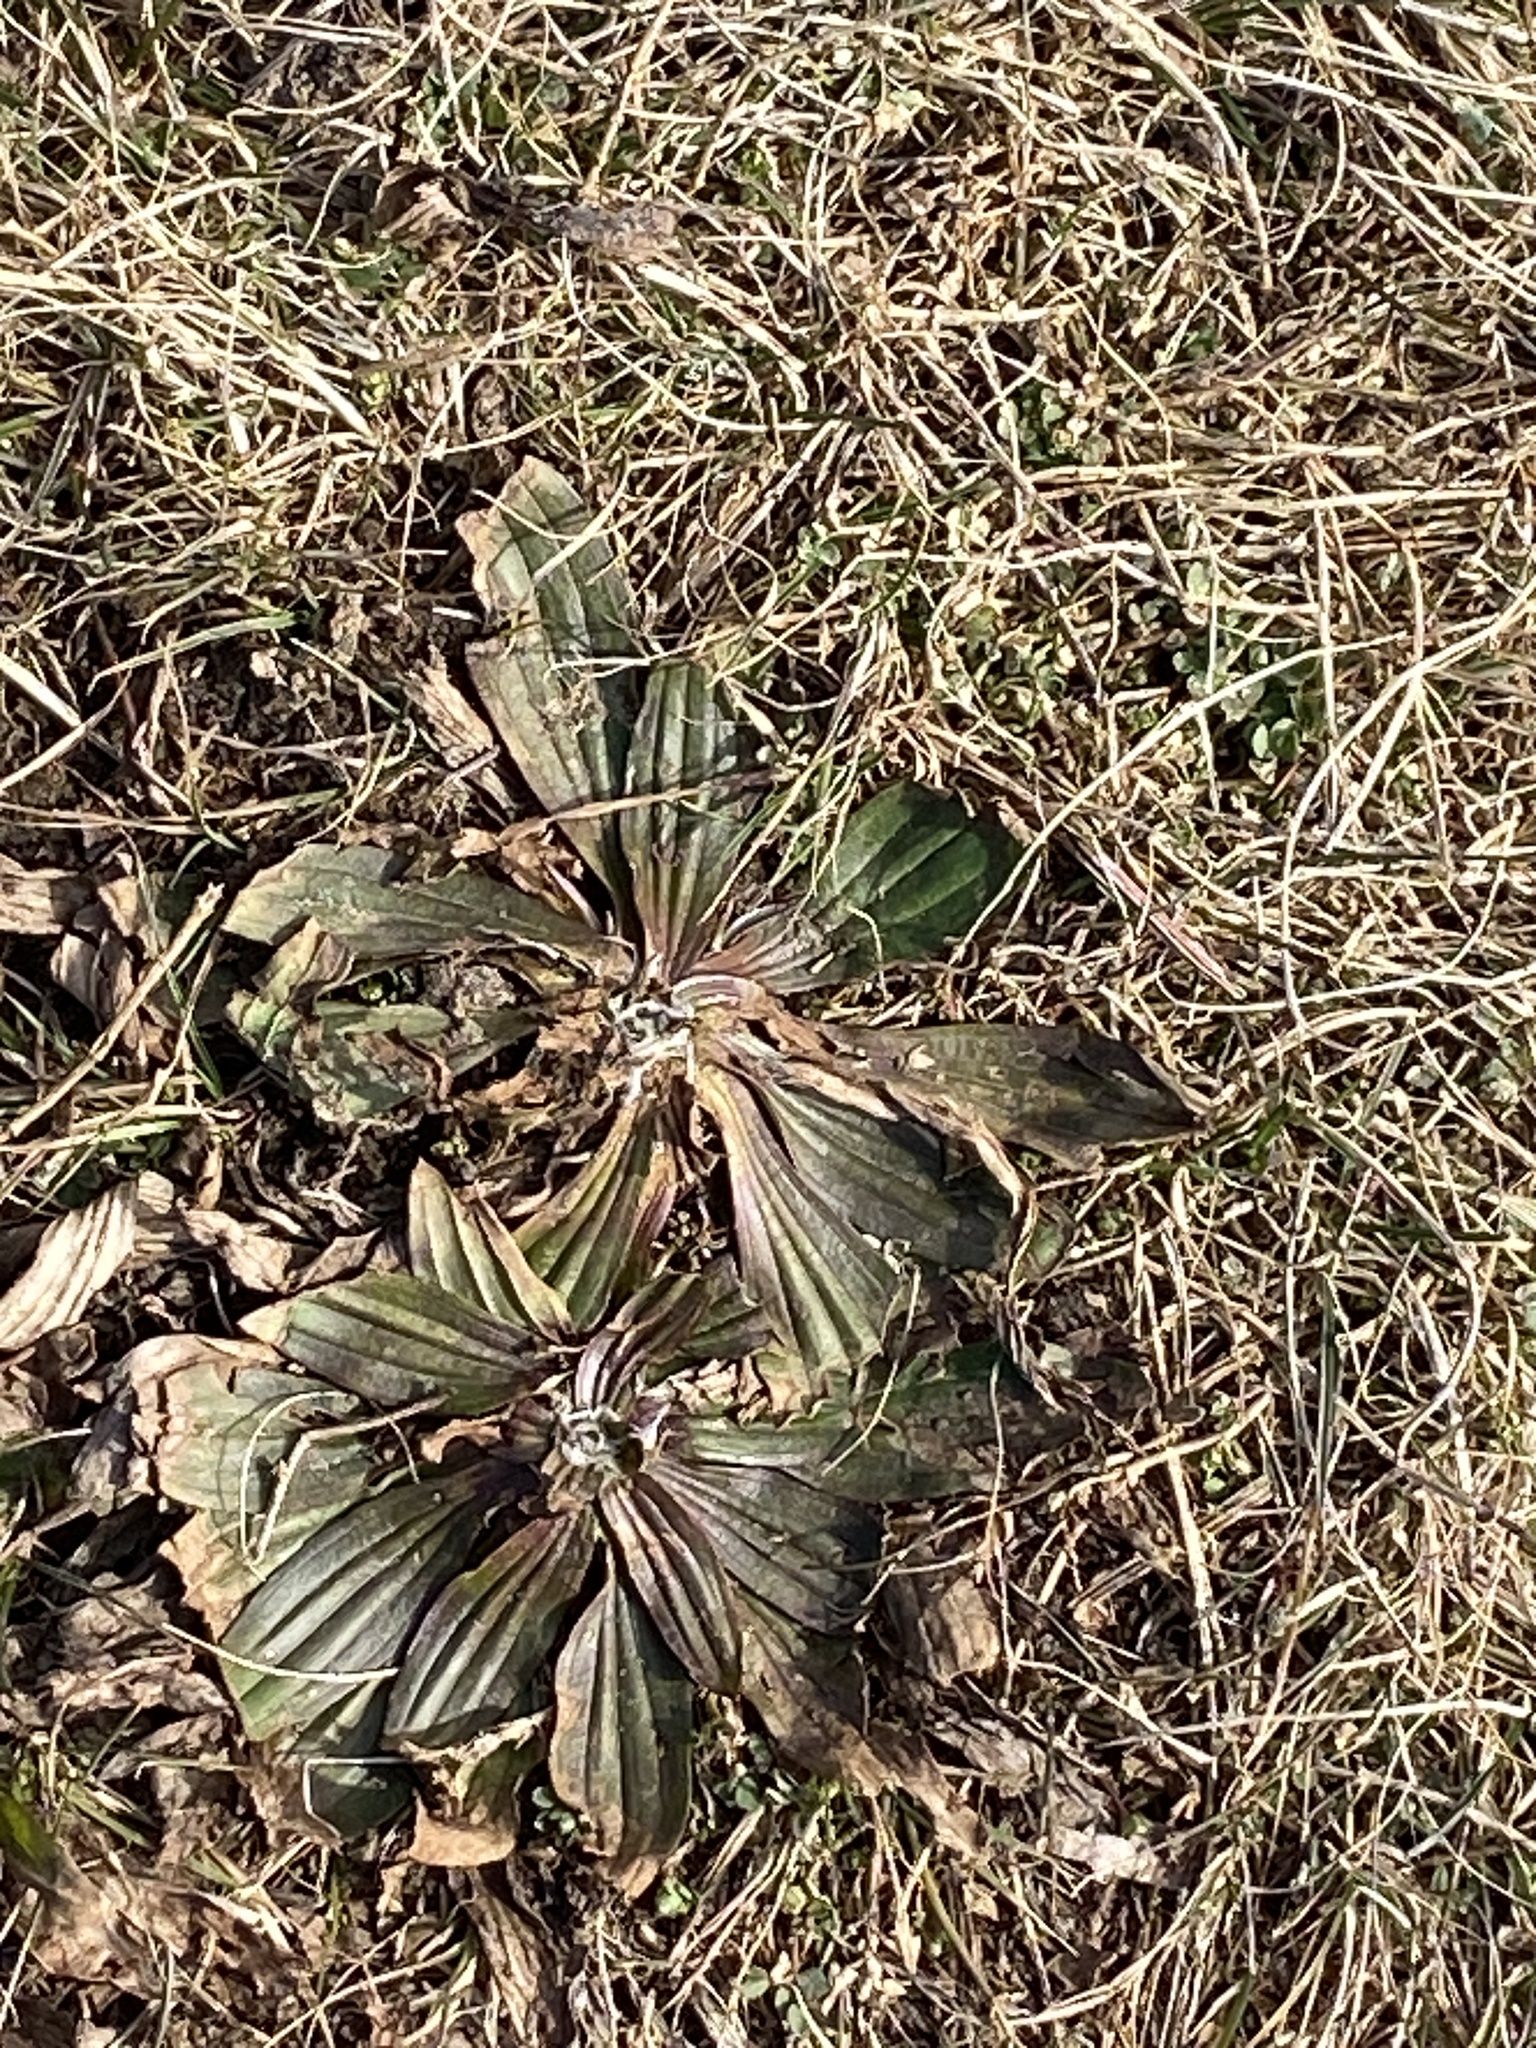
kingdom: Plantae
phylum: Tracheophyta
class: Magnoliopsida
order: Lamiales
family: Plantaginaceae
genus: Plantago
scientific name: Plantago lanceolata
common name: Ribwort plantain
